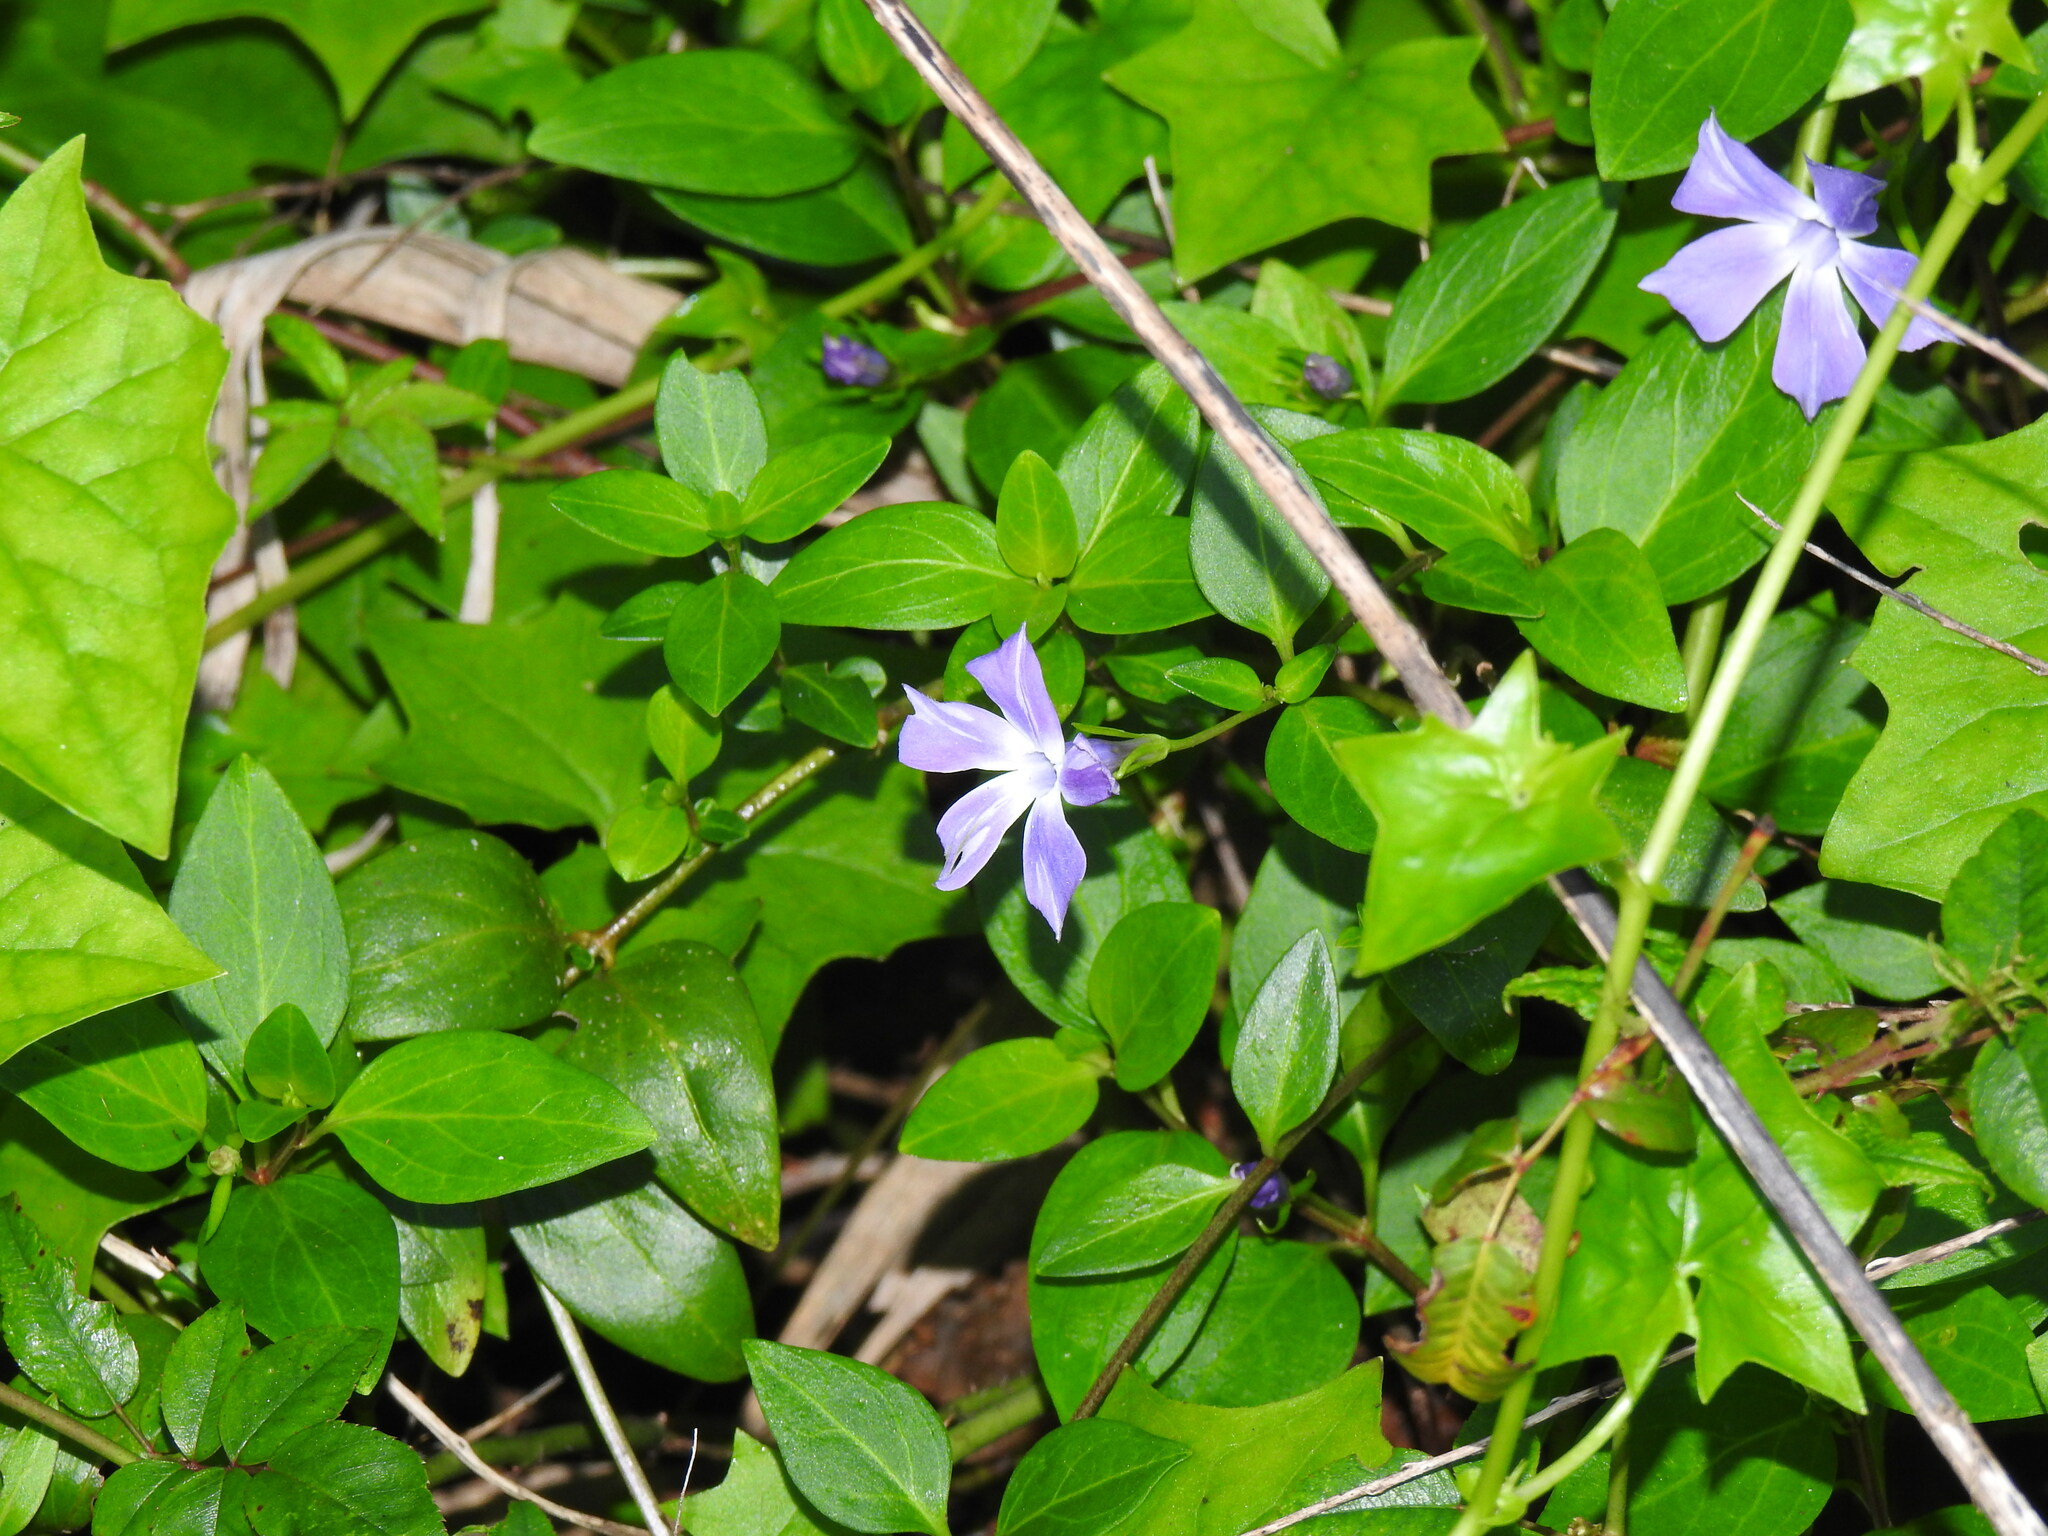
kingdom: Plantae
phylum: Tracheophyta
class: Magnoliopsida
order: Gentianales
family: Apocynaceae
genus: Vinca
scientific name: Vinca difformis
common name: Intermediate periwinkle
